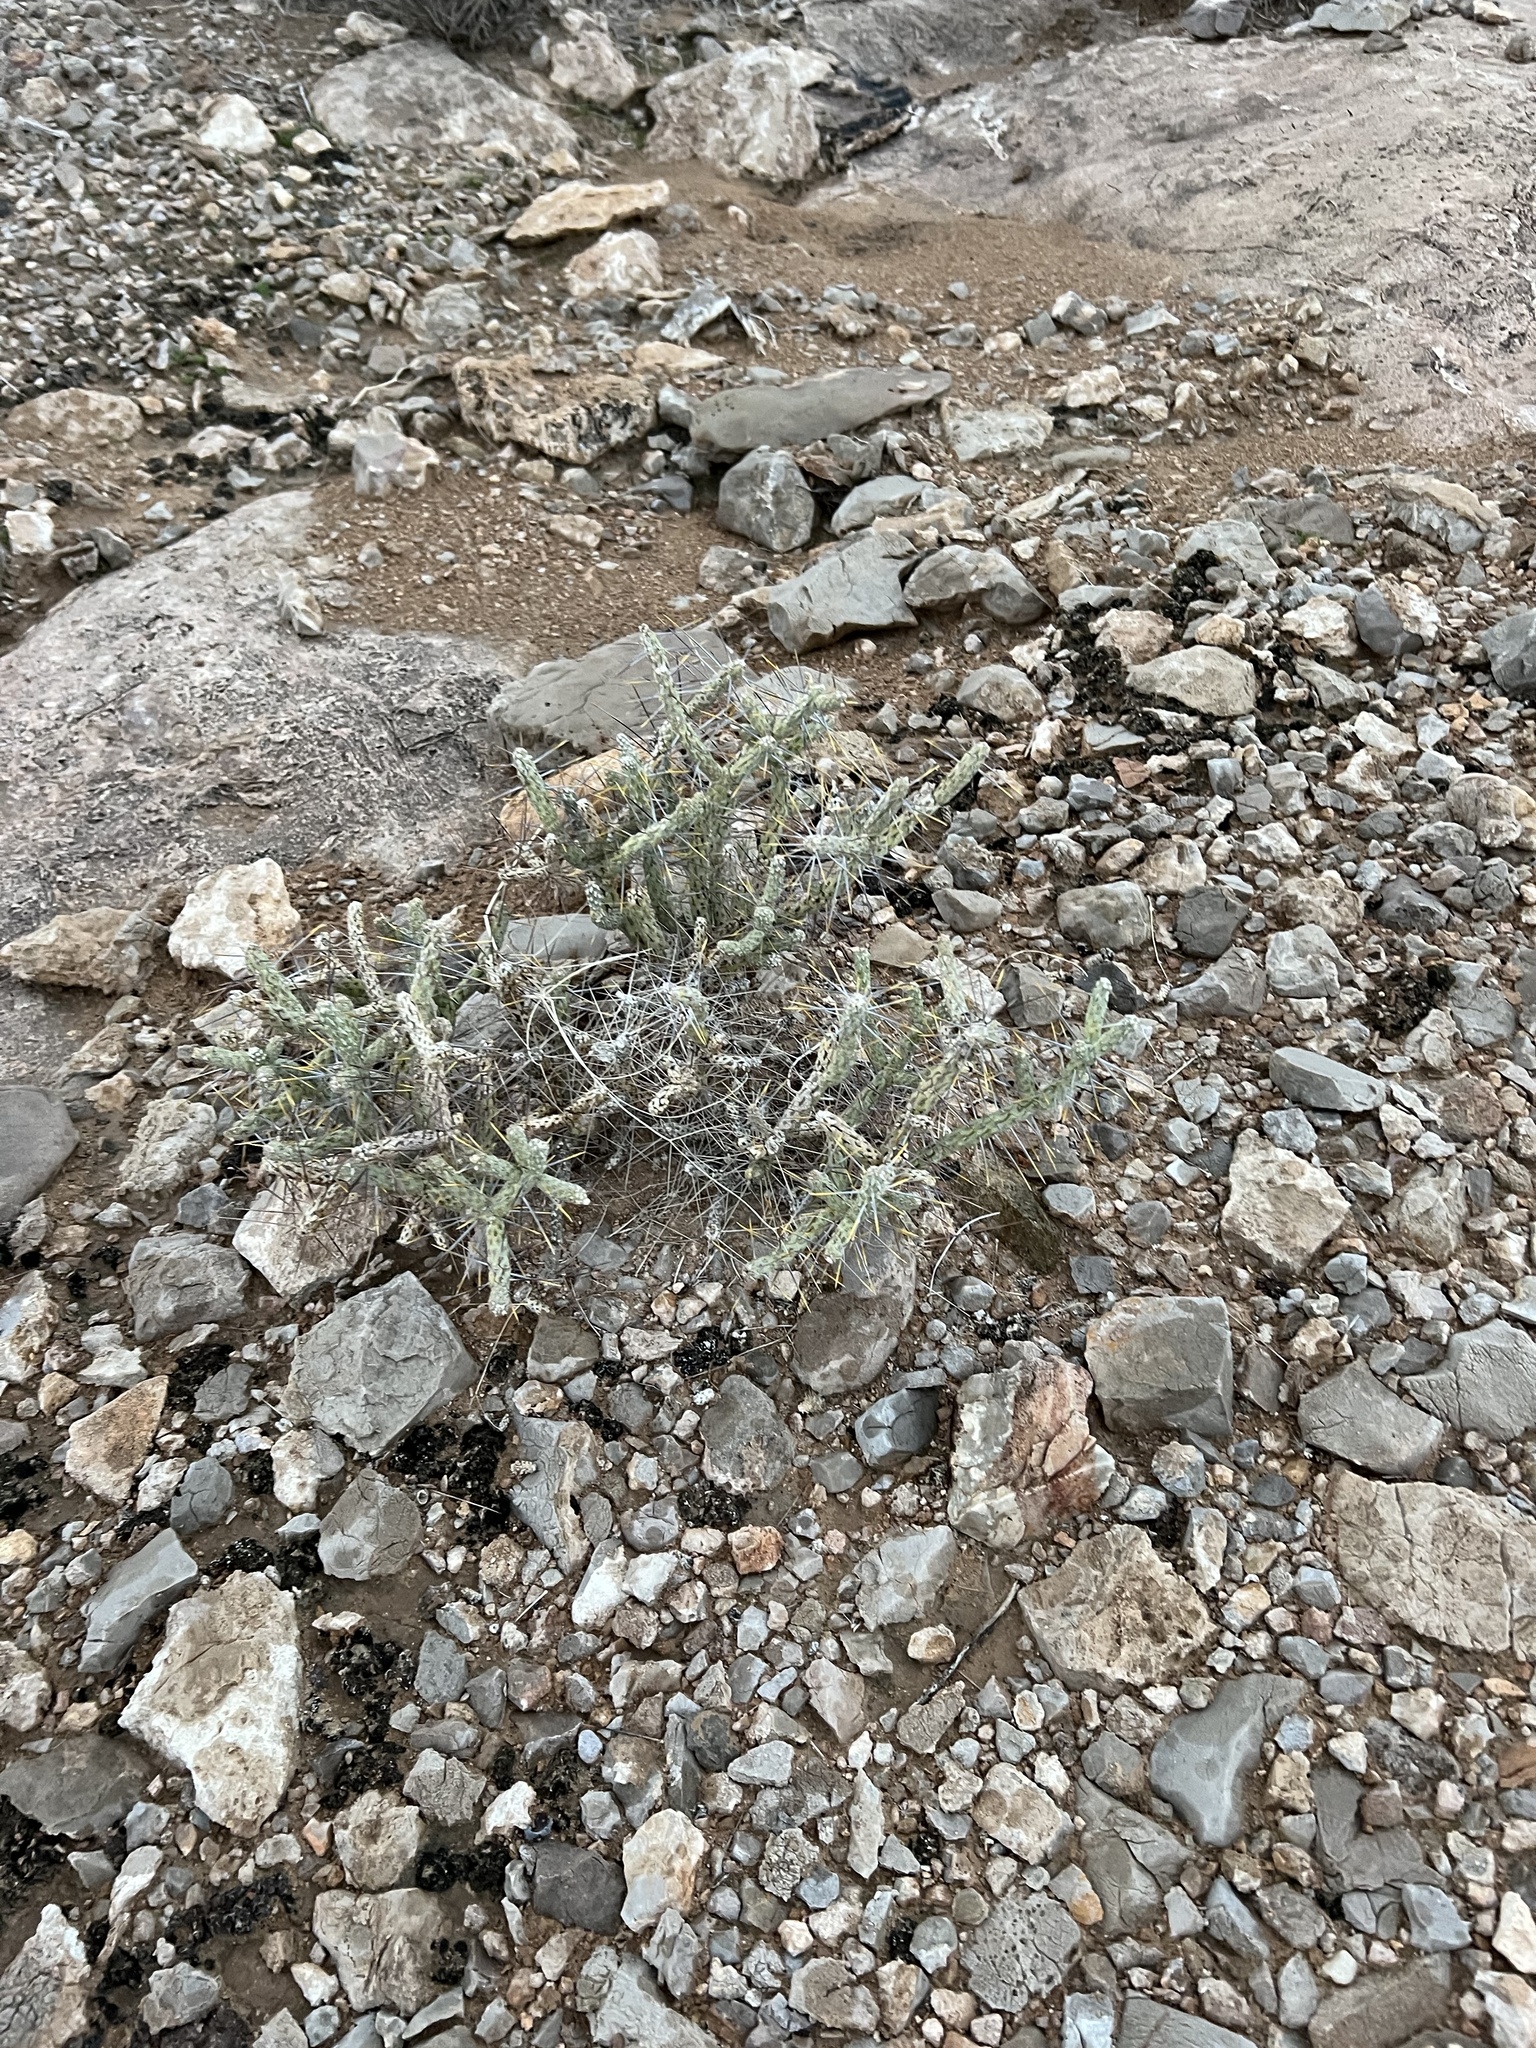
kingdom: Plantae
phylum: Tracheophyta
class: Magnoliopsida
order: Caryophyllales
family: Cactaceae
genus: Cylindropuntia
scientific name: Cylindropuntia ramosissima
